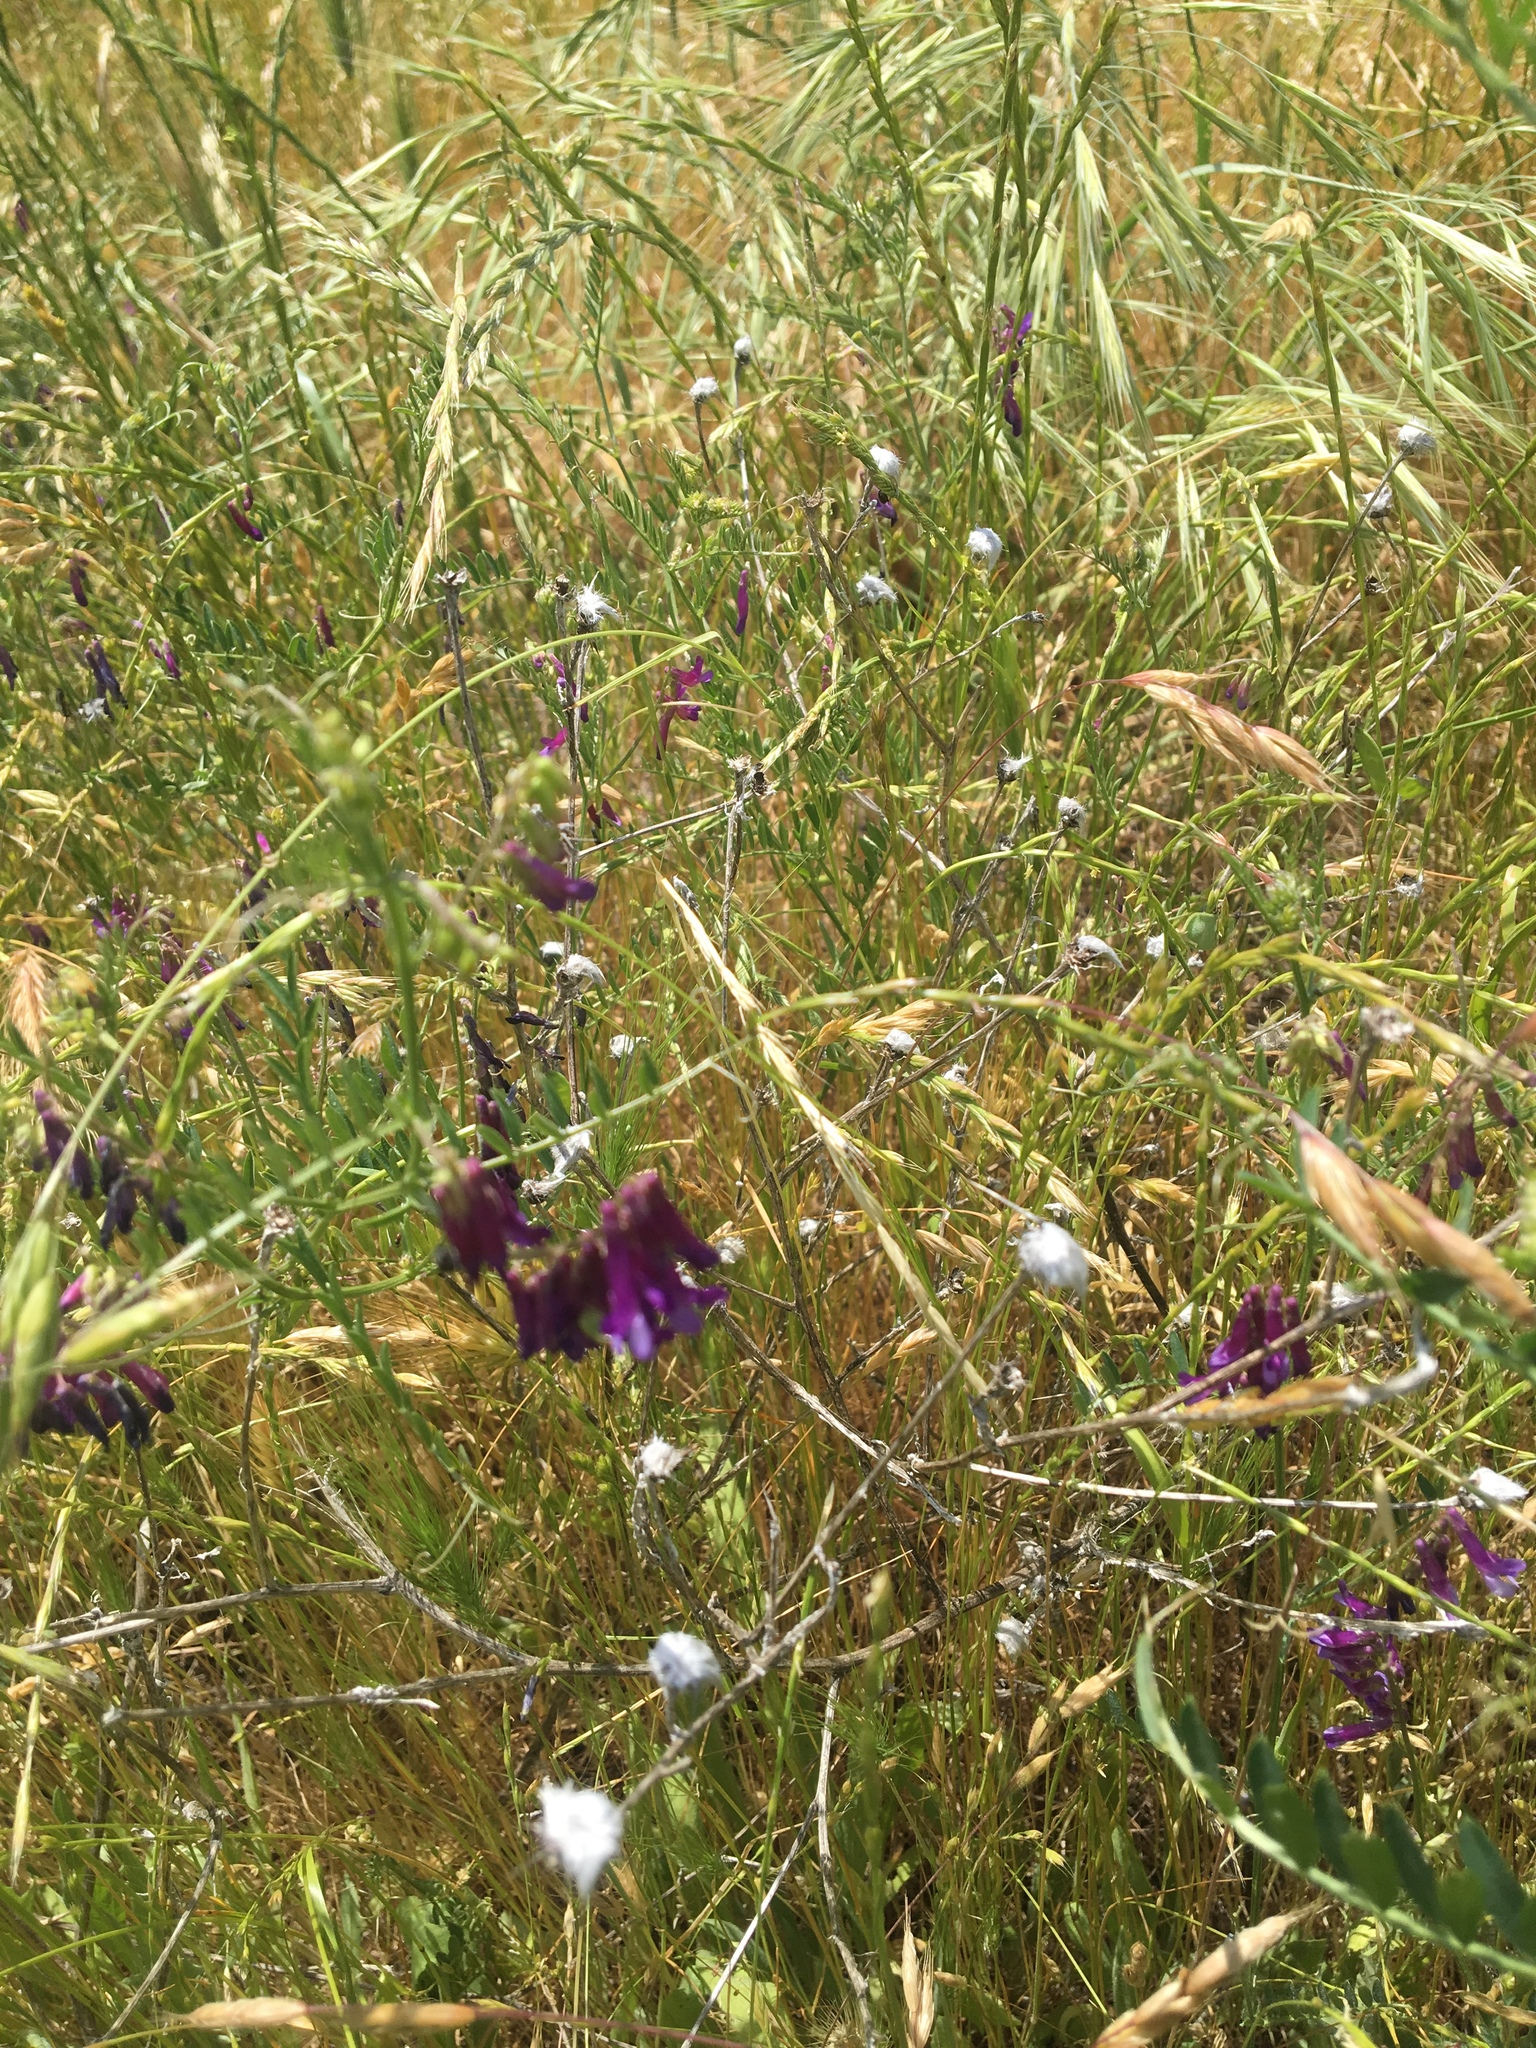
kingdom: Plantae
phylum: Tracheophyta
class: Magnoliopsida
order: Fabales
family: Fabaceae
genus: Vicia
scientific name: Vicia villosa
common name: Fodder vetch
